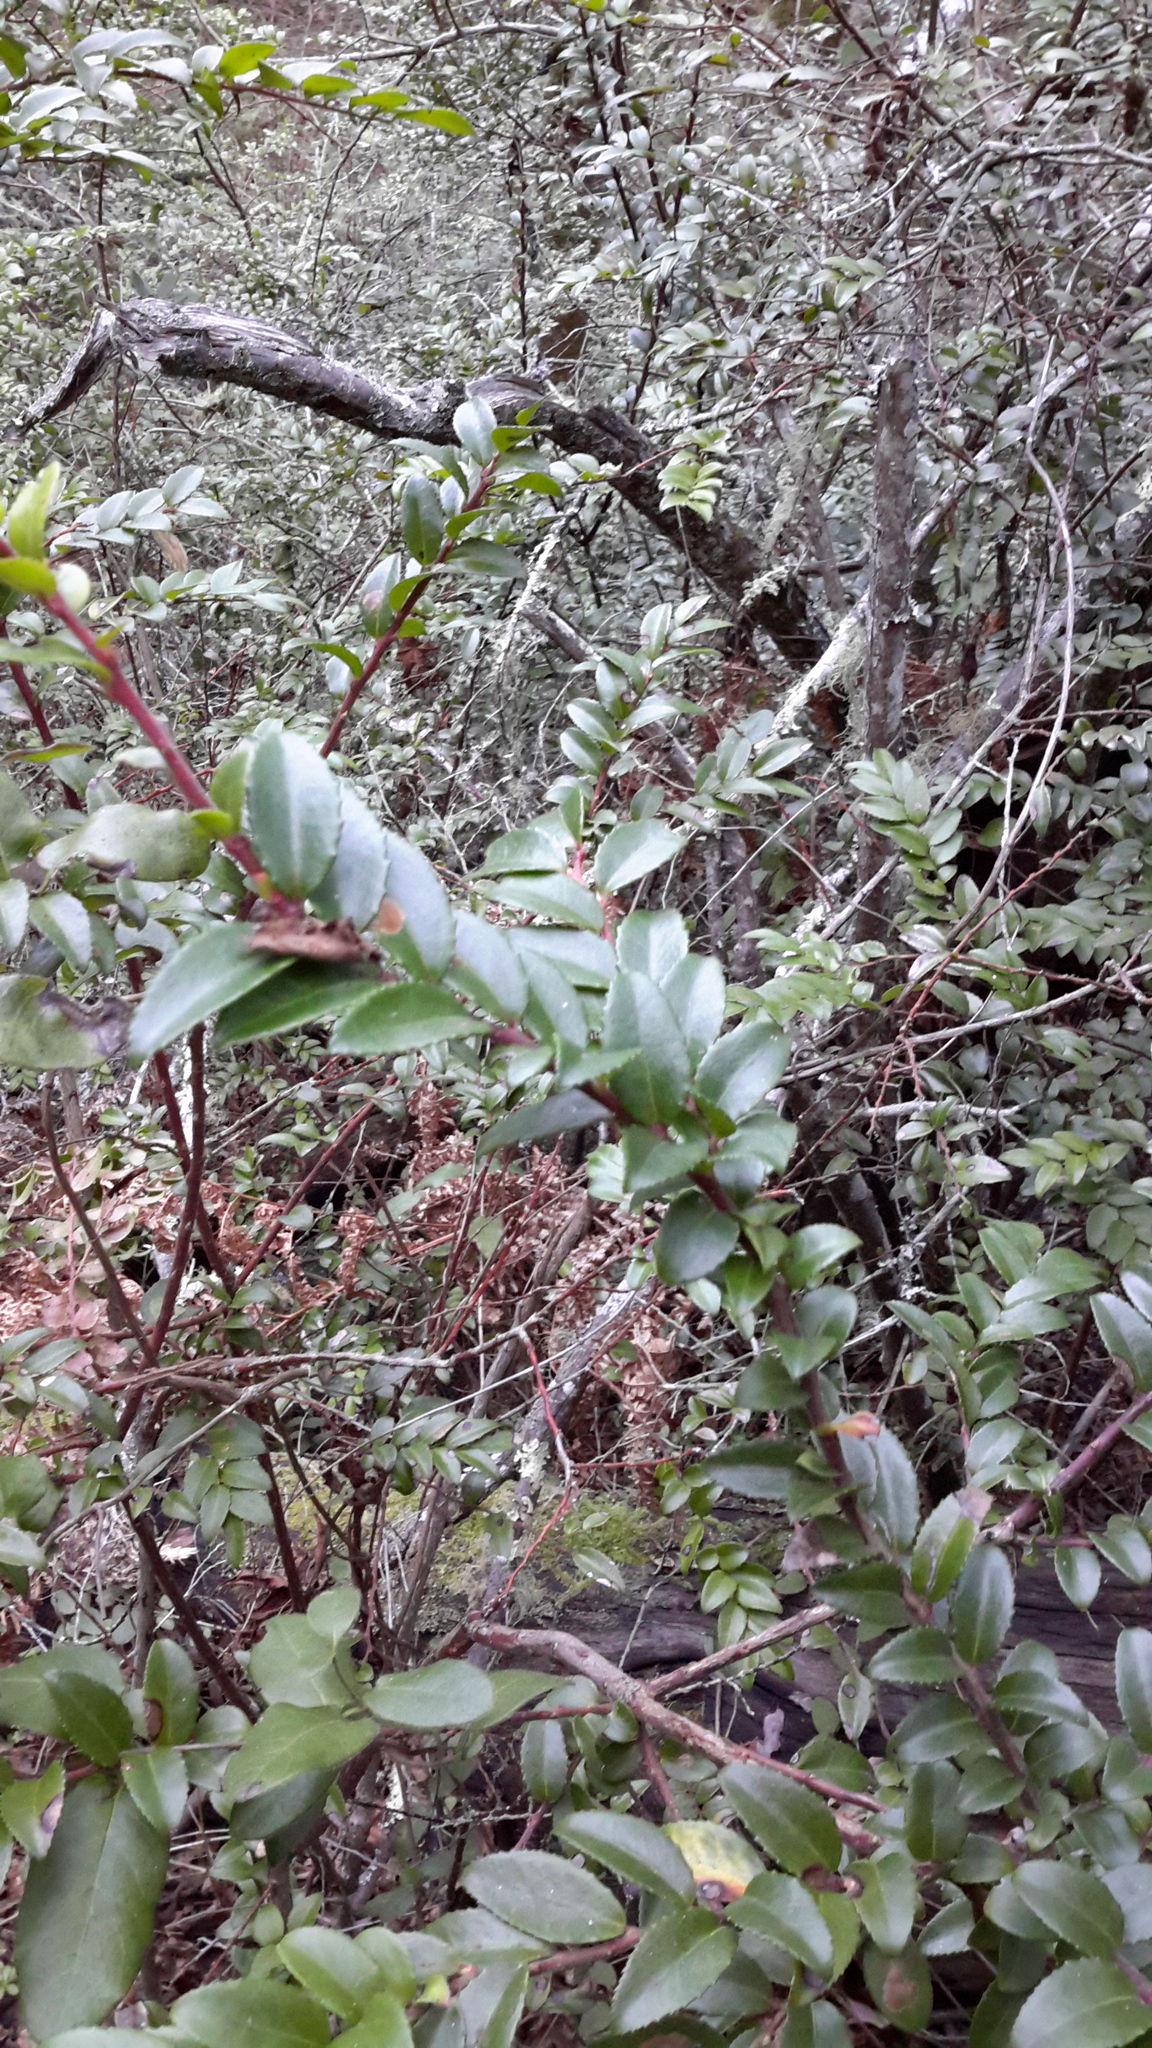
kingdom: Plantae
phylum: Tracheophyta
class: Magnoliopsida
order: Ericales
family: Ericaceae
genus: Vaccinium
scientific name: Vaccinium ovatum
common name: California-huckleberry
